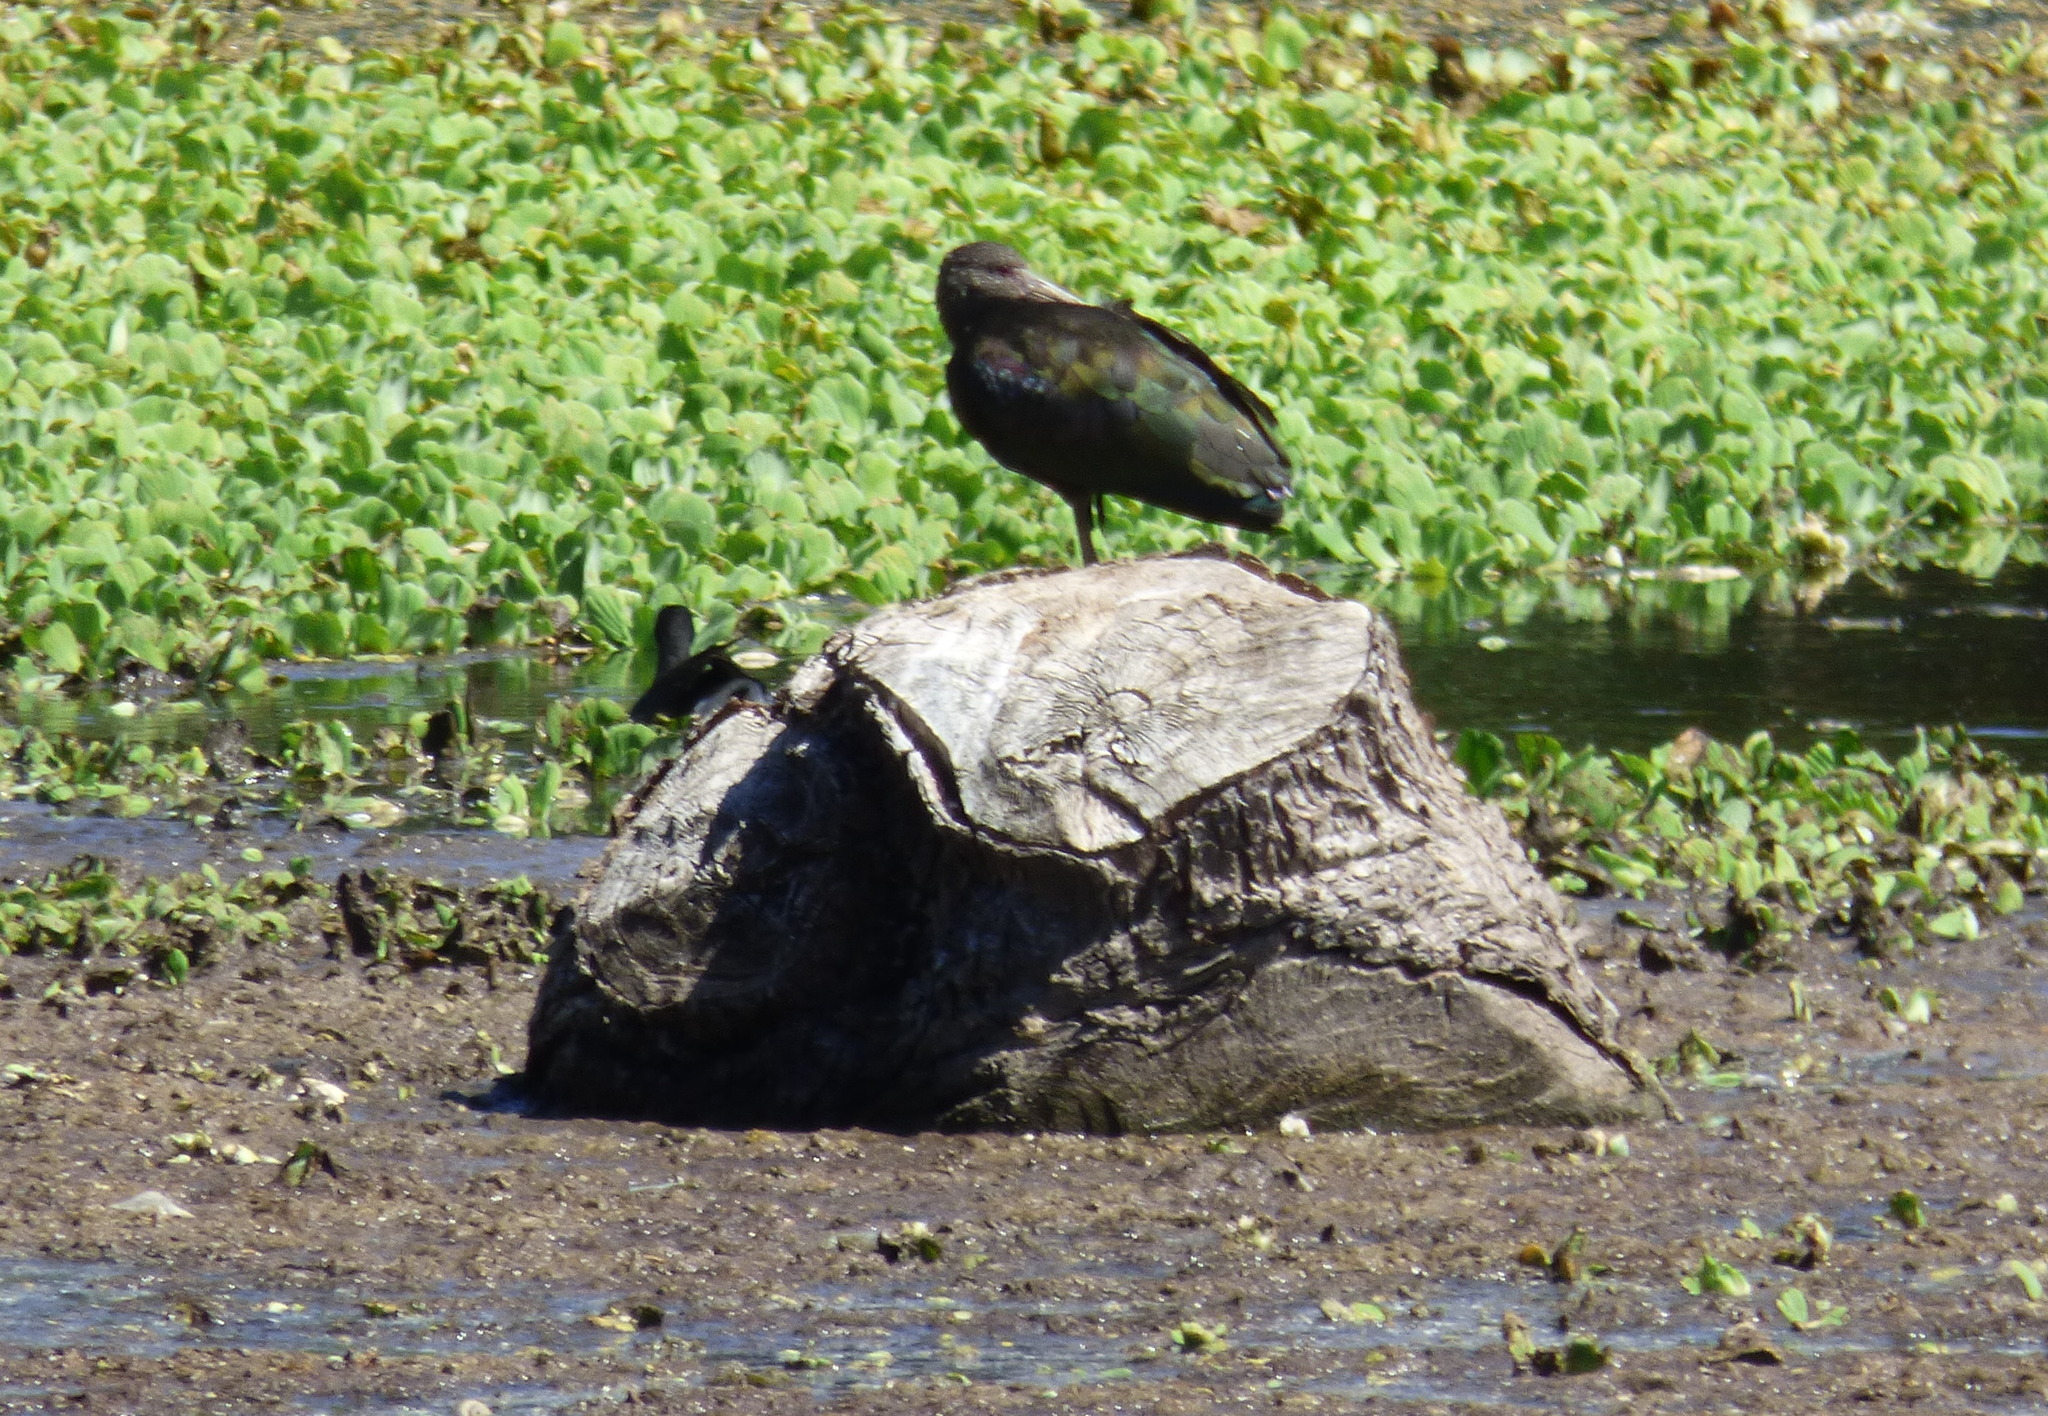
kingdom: Animalia
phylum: Chordata
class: Aves
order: Pelecaniformes
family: Threskiornithidae
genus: Plegadis
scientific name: Plegadis chihi
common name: White-faced ibis
